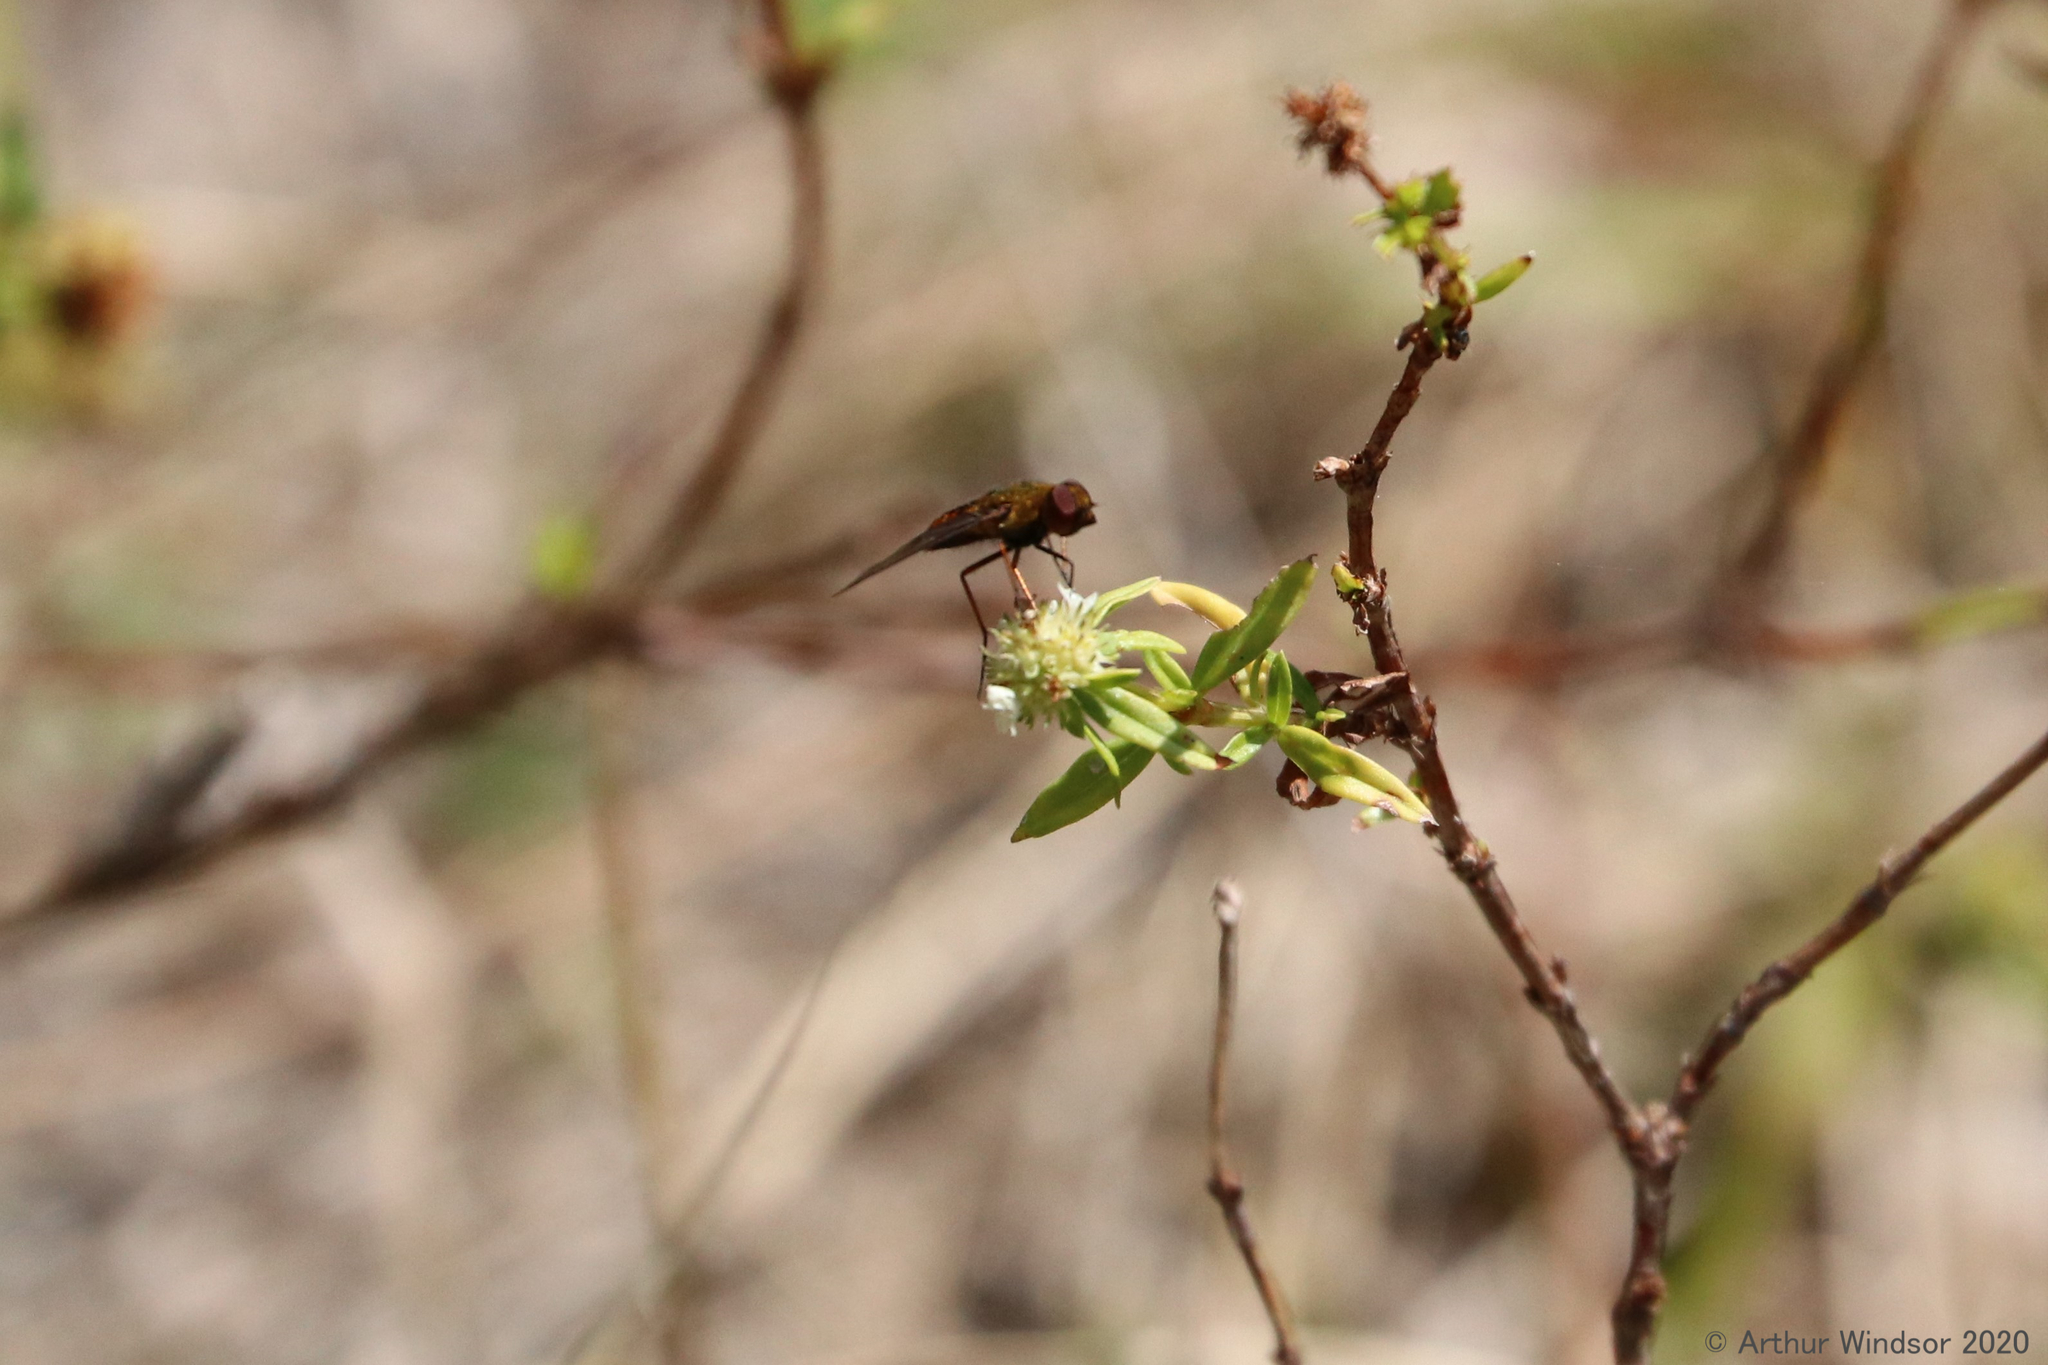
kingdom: Animalia
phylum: Arthropoda
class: Insecta
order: Diptera
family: Bombyliidae
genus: Chrysanthrax
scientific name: Chrysanthrax cypris
